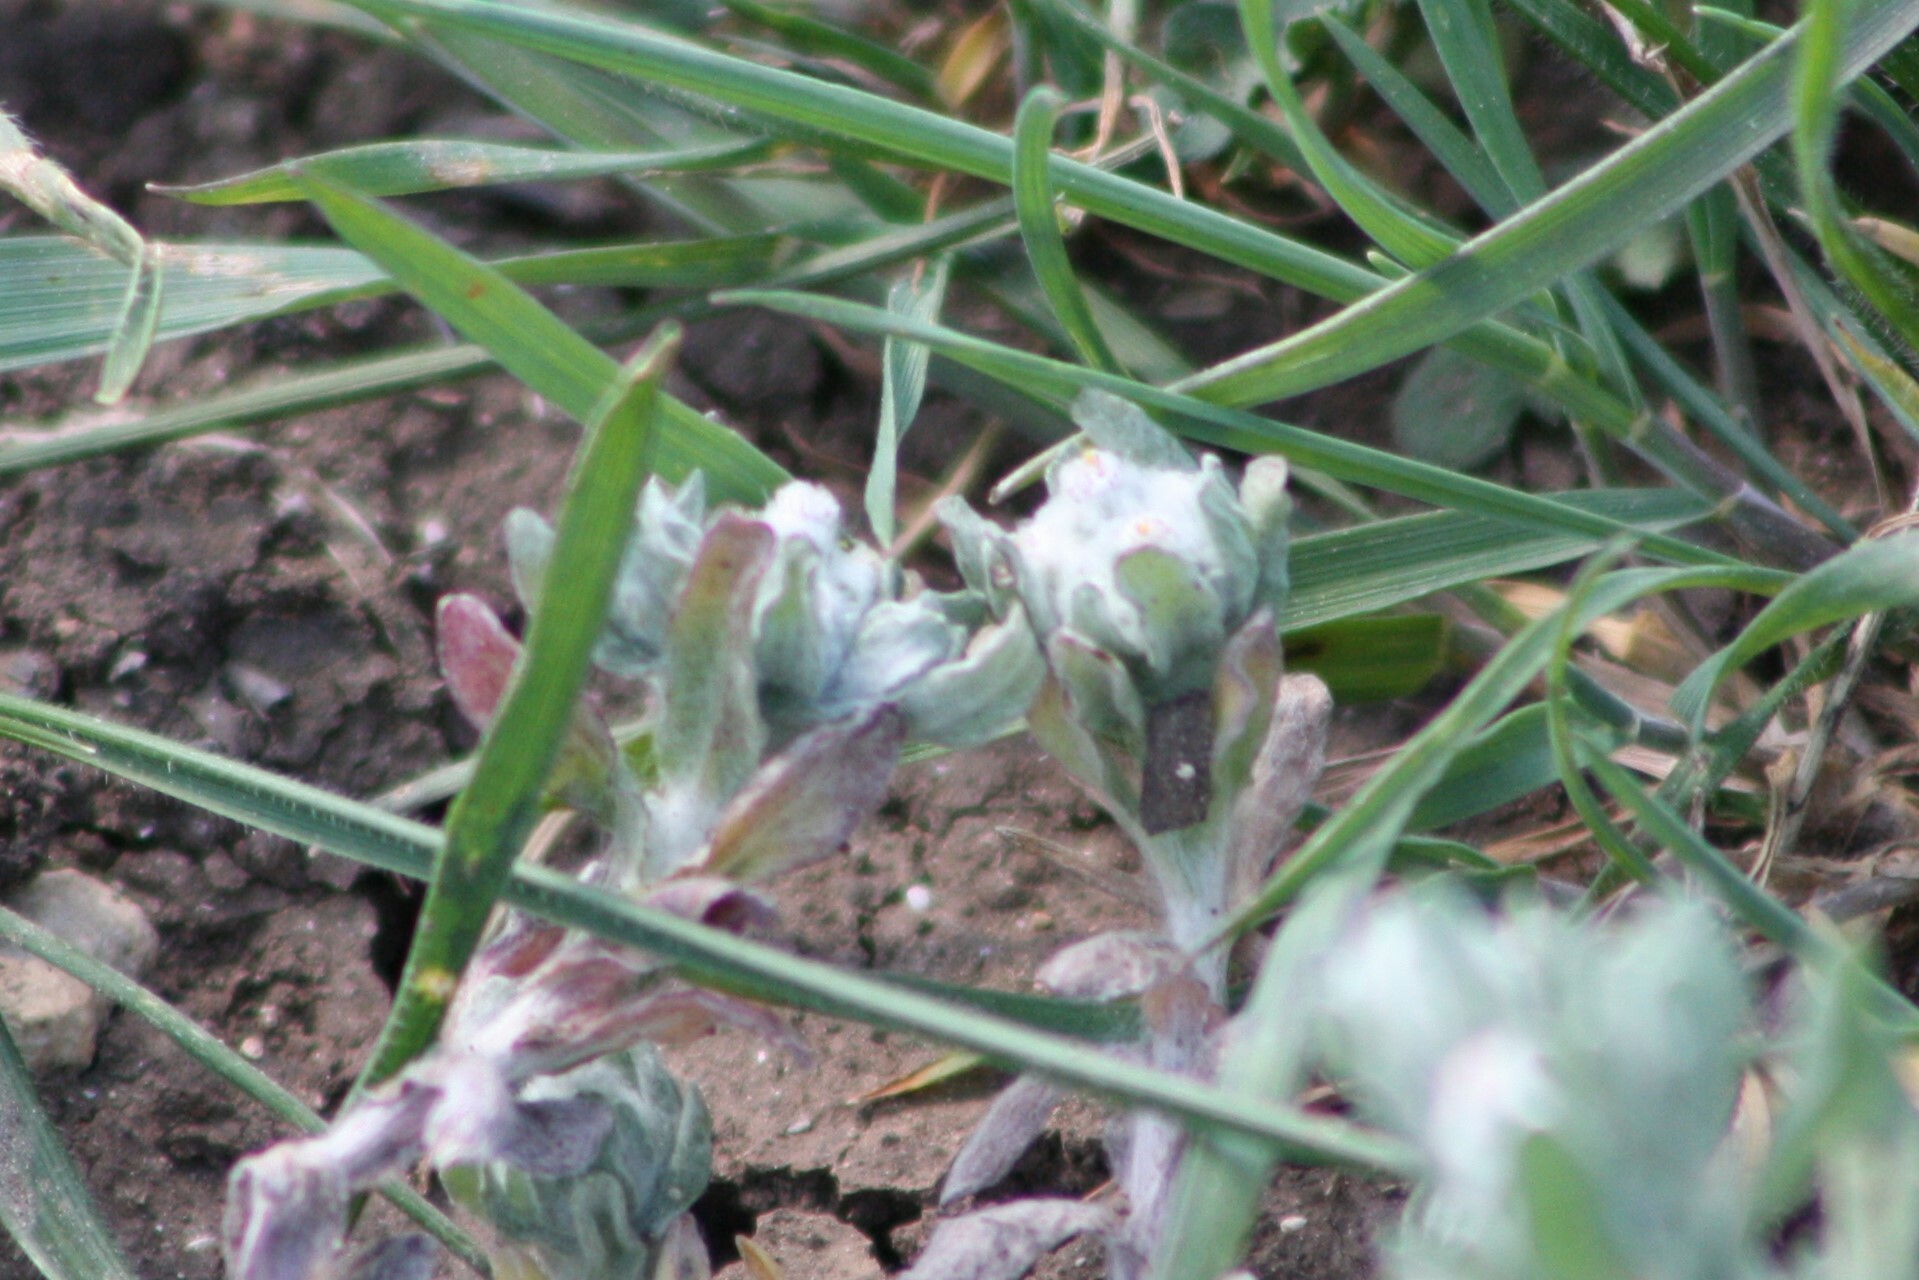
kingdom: Plantae
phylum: Tracheophyta
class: Magnoliopsida
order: Asterales
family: Asteraceae
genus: Diaperia
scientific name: Diaperia verna
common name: Many-stem rabbit-tobacco
